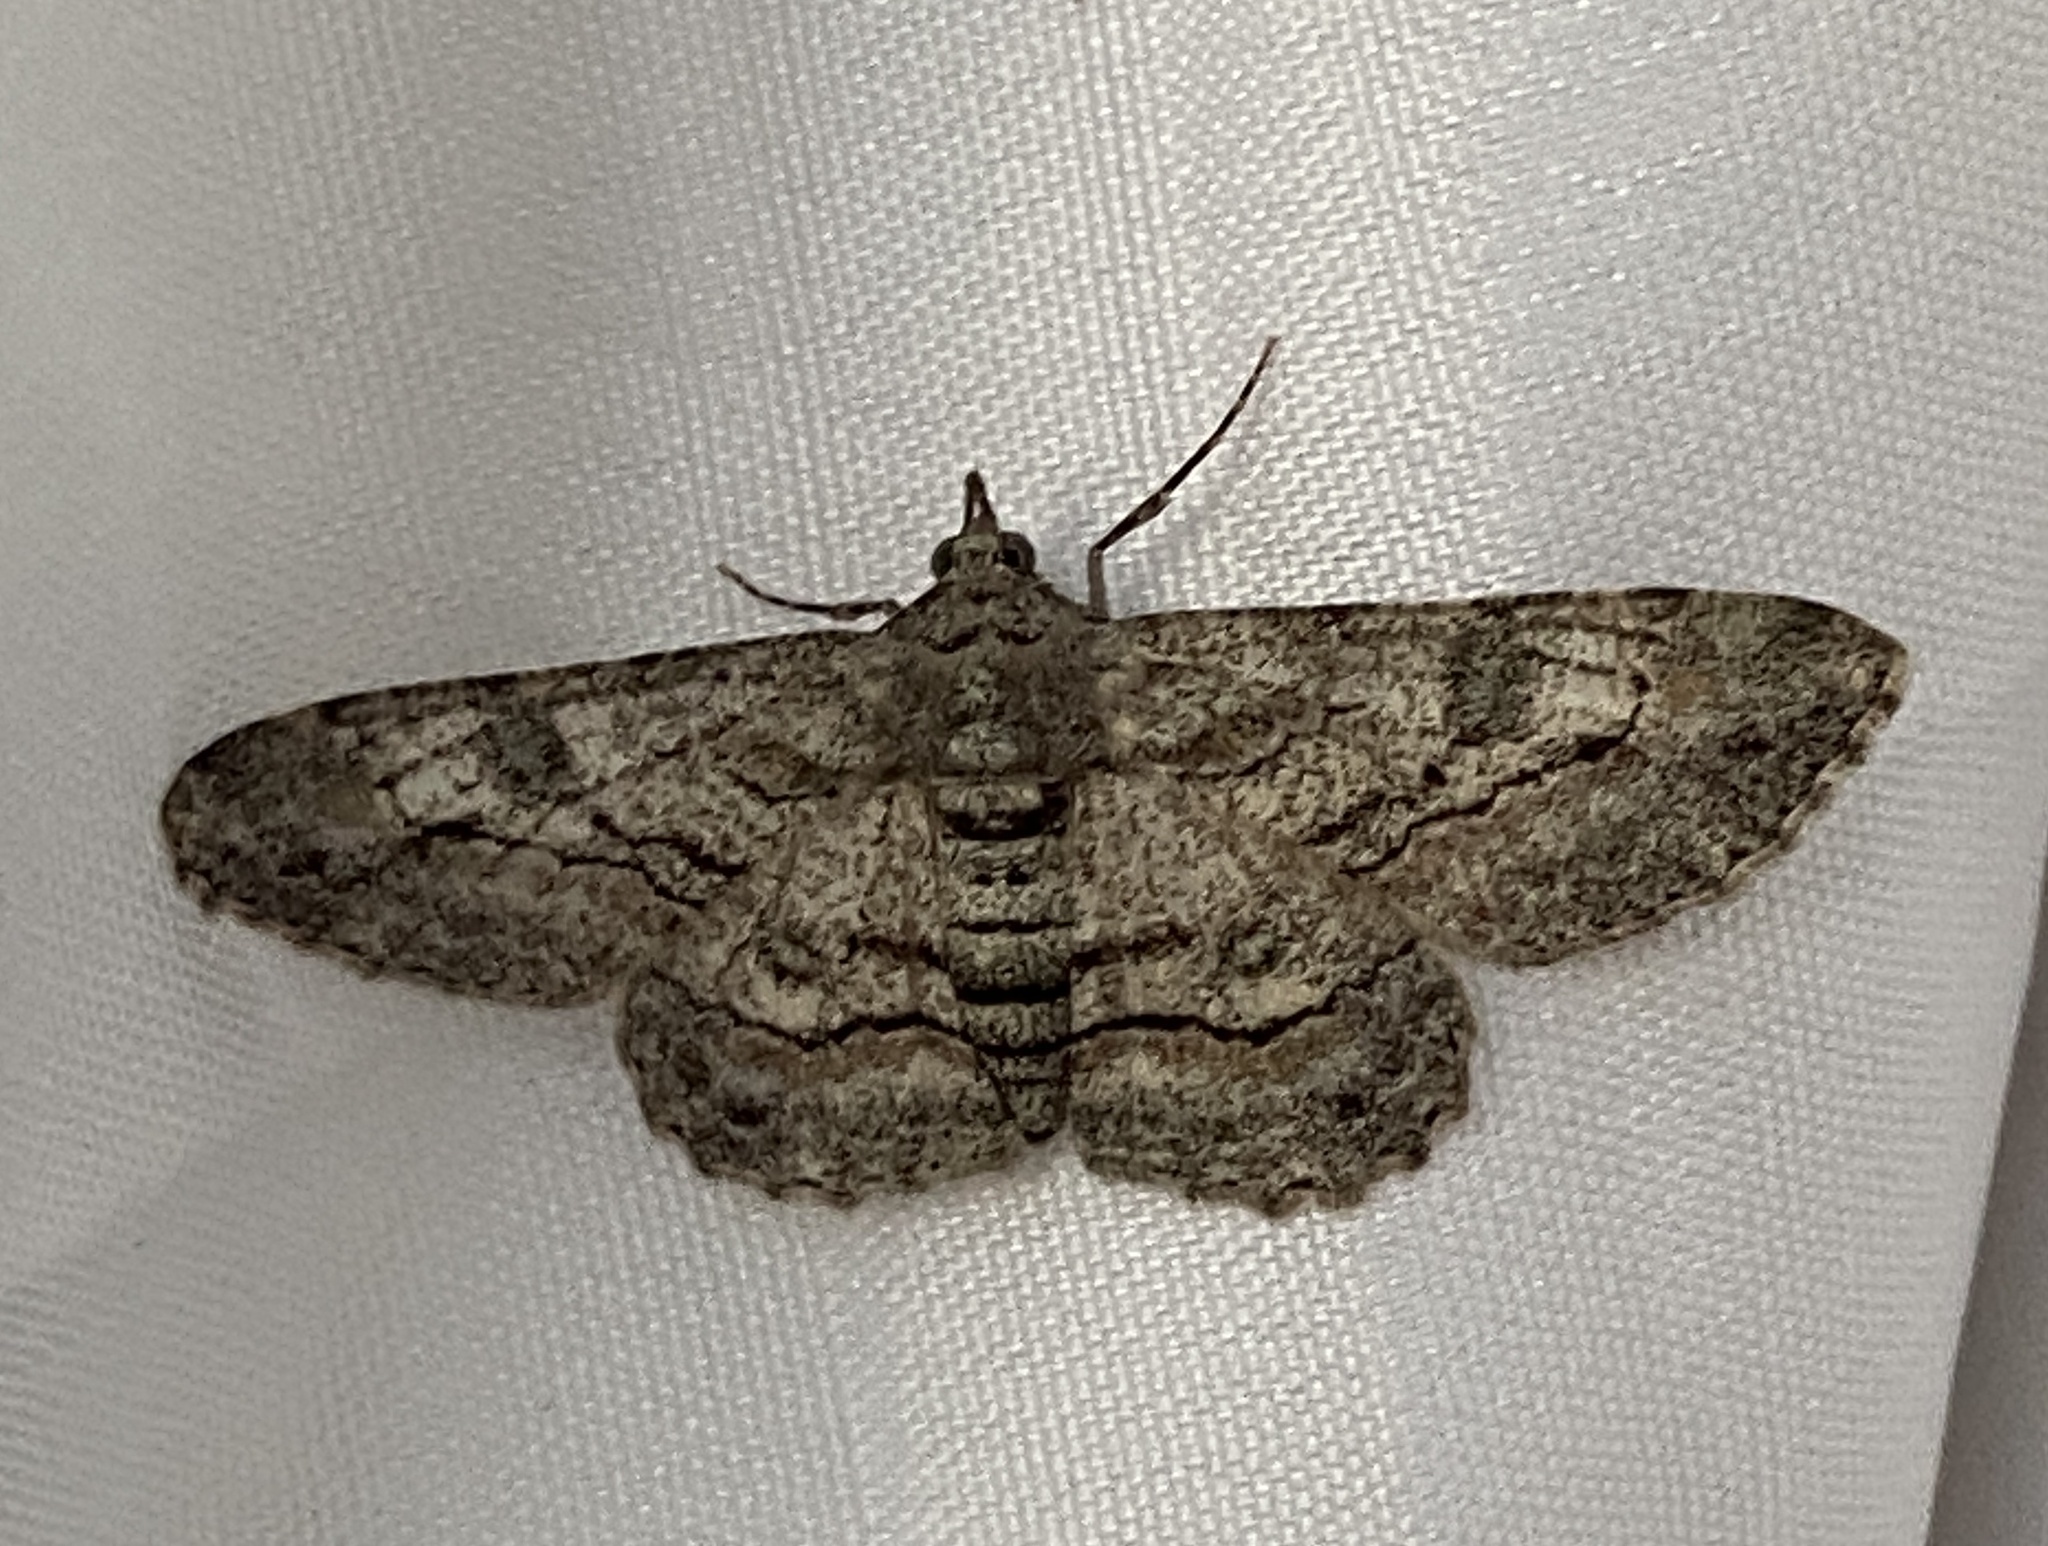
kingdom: Animalia
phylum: Arthropoda
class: Insecta
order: Lepidoptera
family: Geometridae
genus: Cleora
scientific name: Cleora displicata
